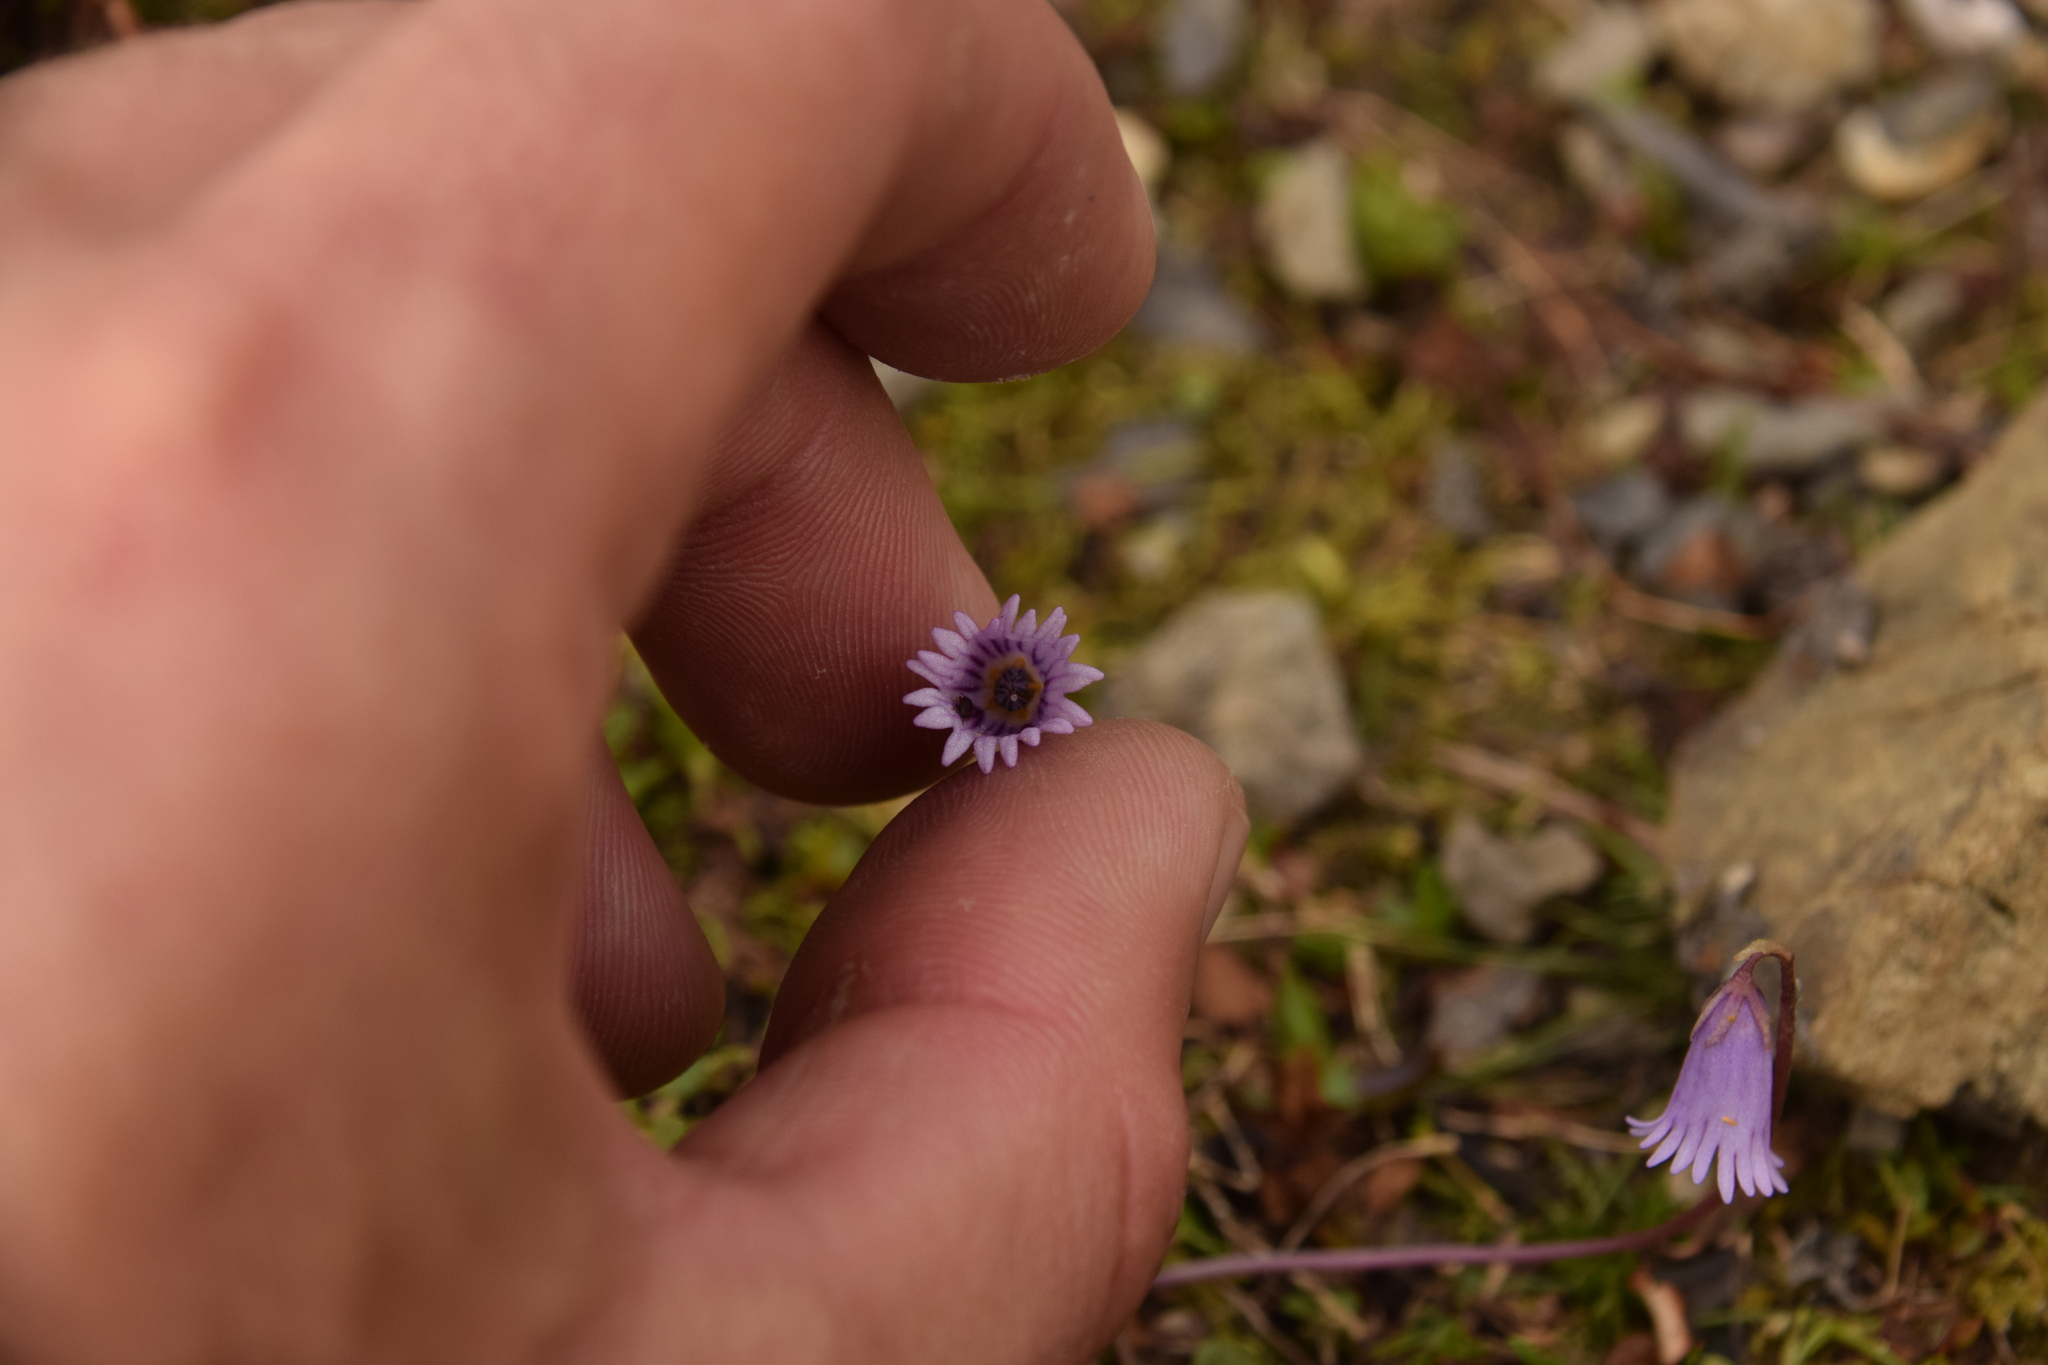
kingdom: Plantae
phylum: Tracheophyta
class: Magnoliopsida
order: Ericales
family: Primulaceae
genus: Soldanella
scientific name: Soldanella alpicola
